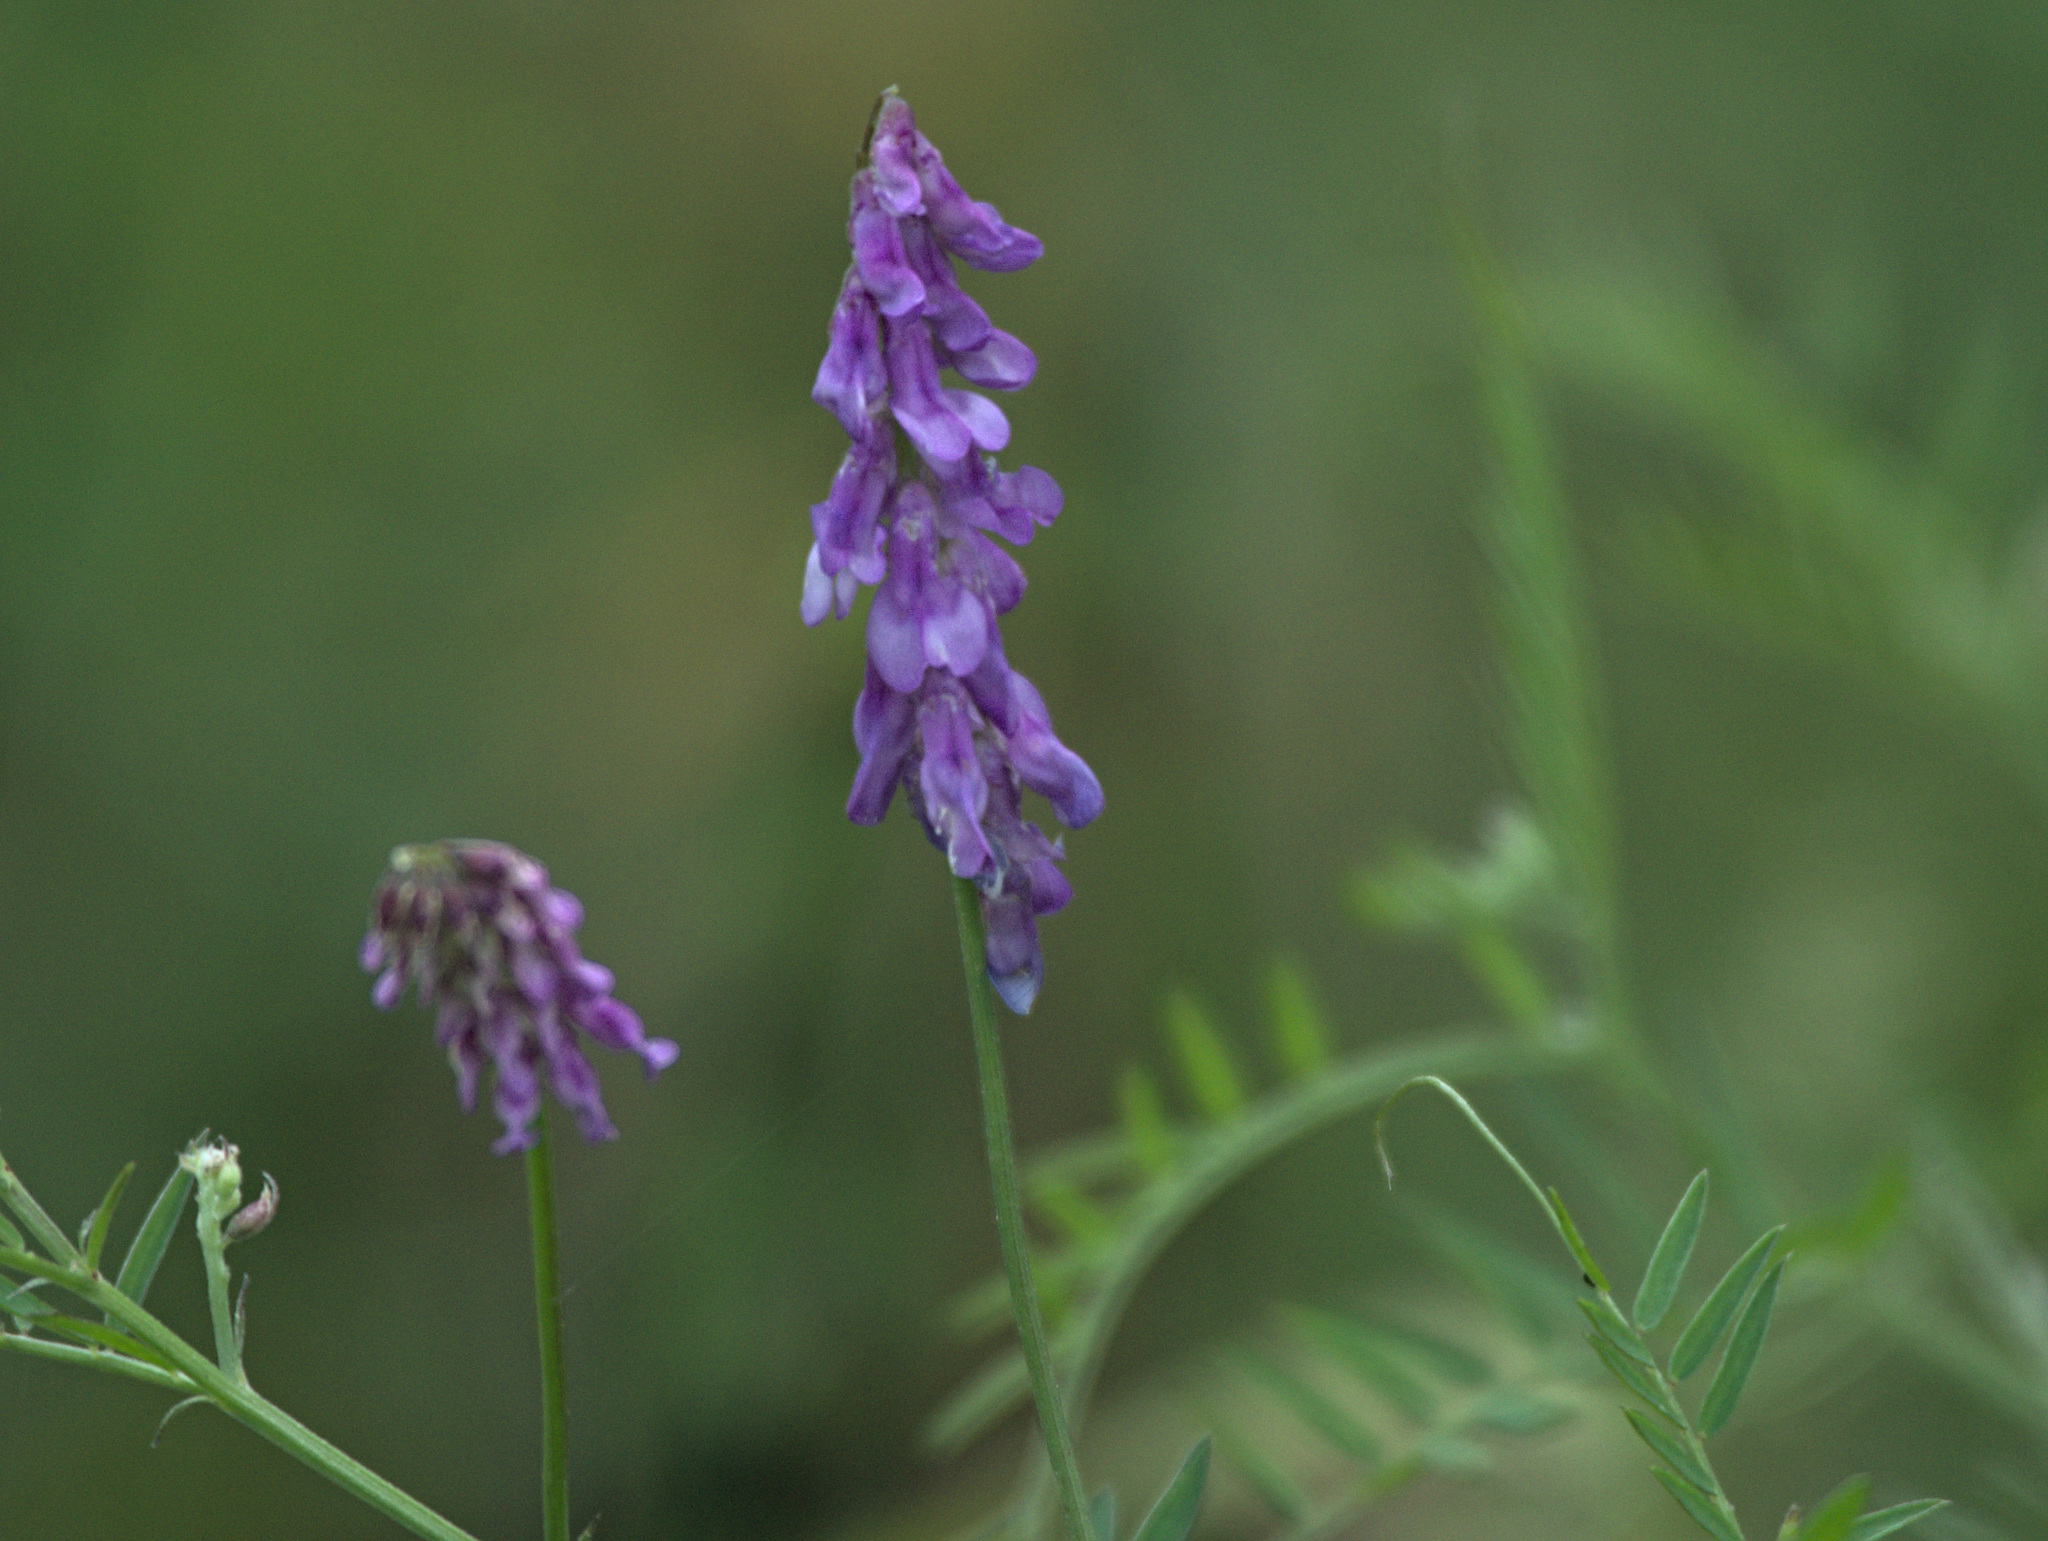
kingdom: Plantae
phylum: Tracheophyta
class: Magnoliopsida
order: Fabales
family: Fabaceae
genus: Vicia
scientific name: Vicia cracca
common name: Bird vetch
